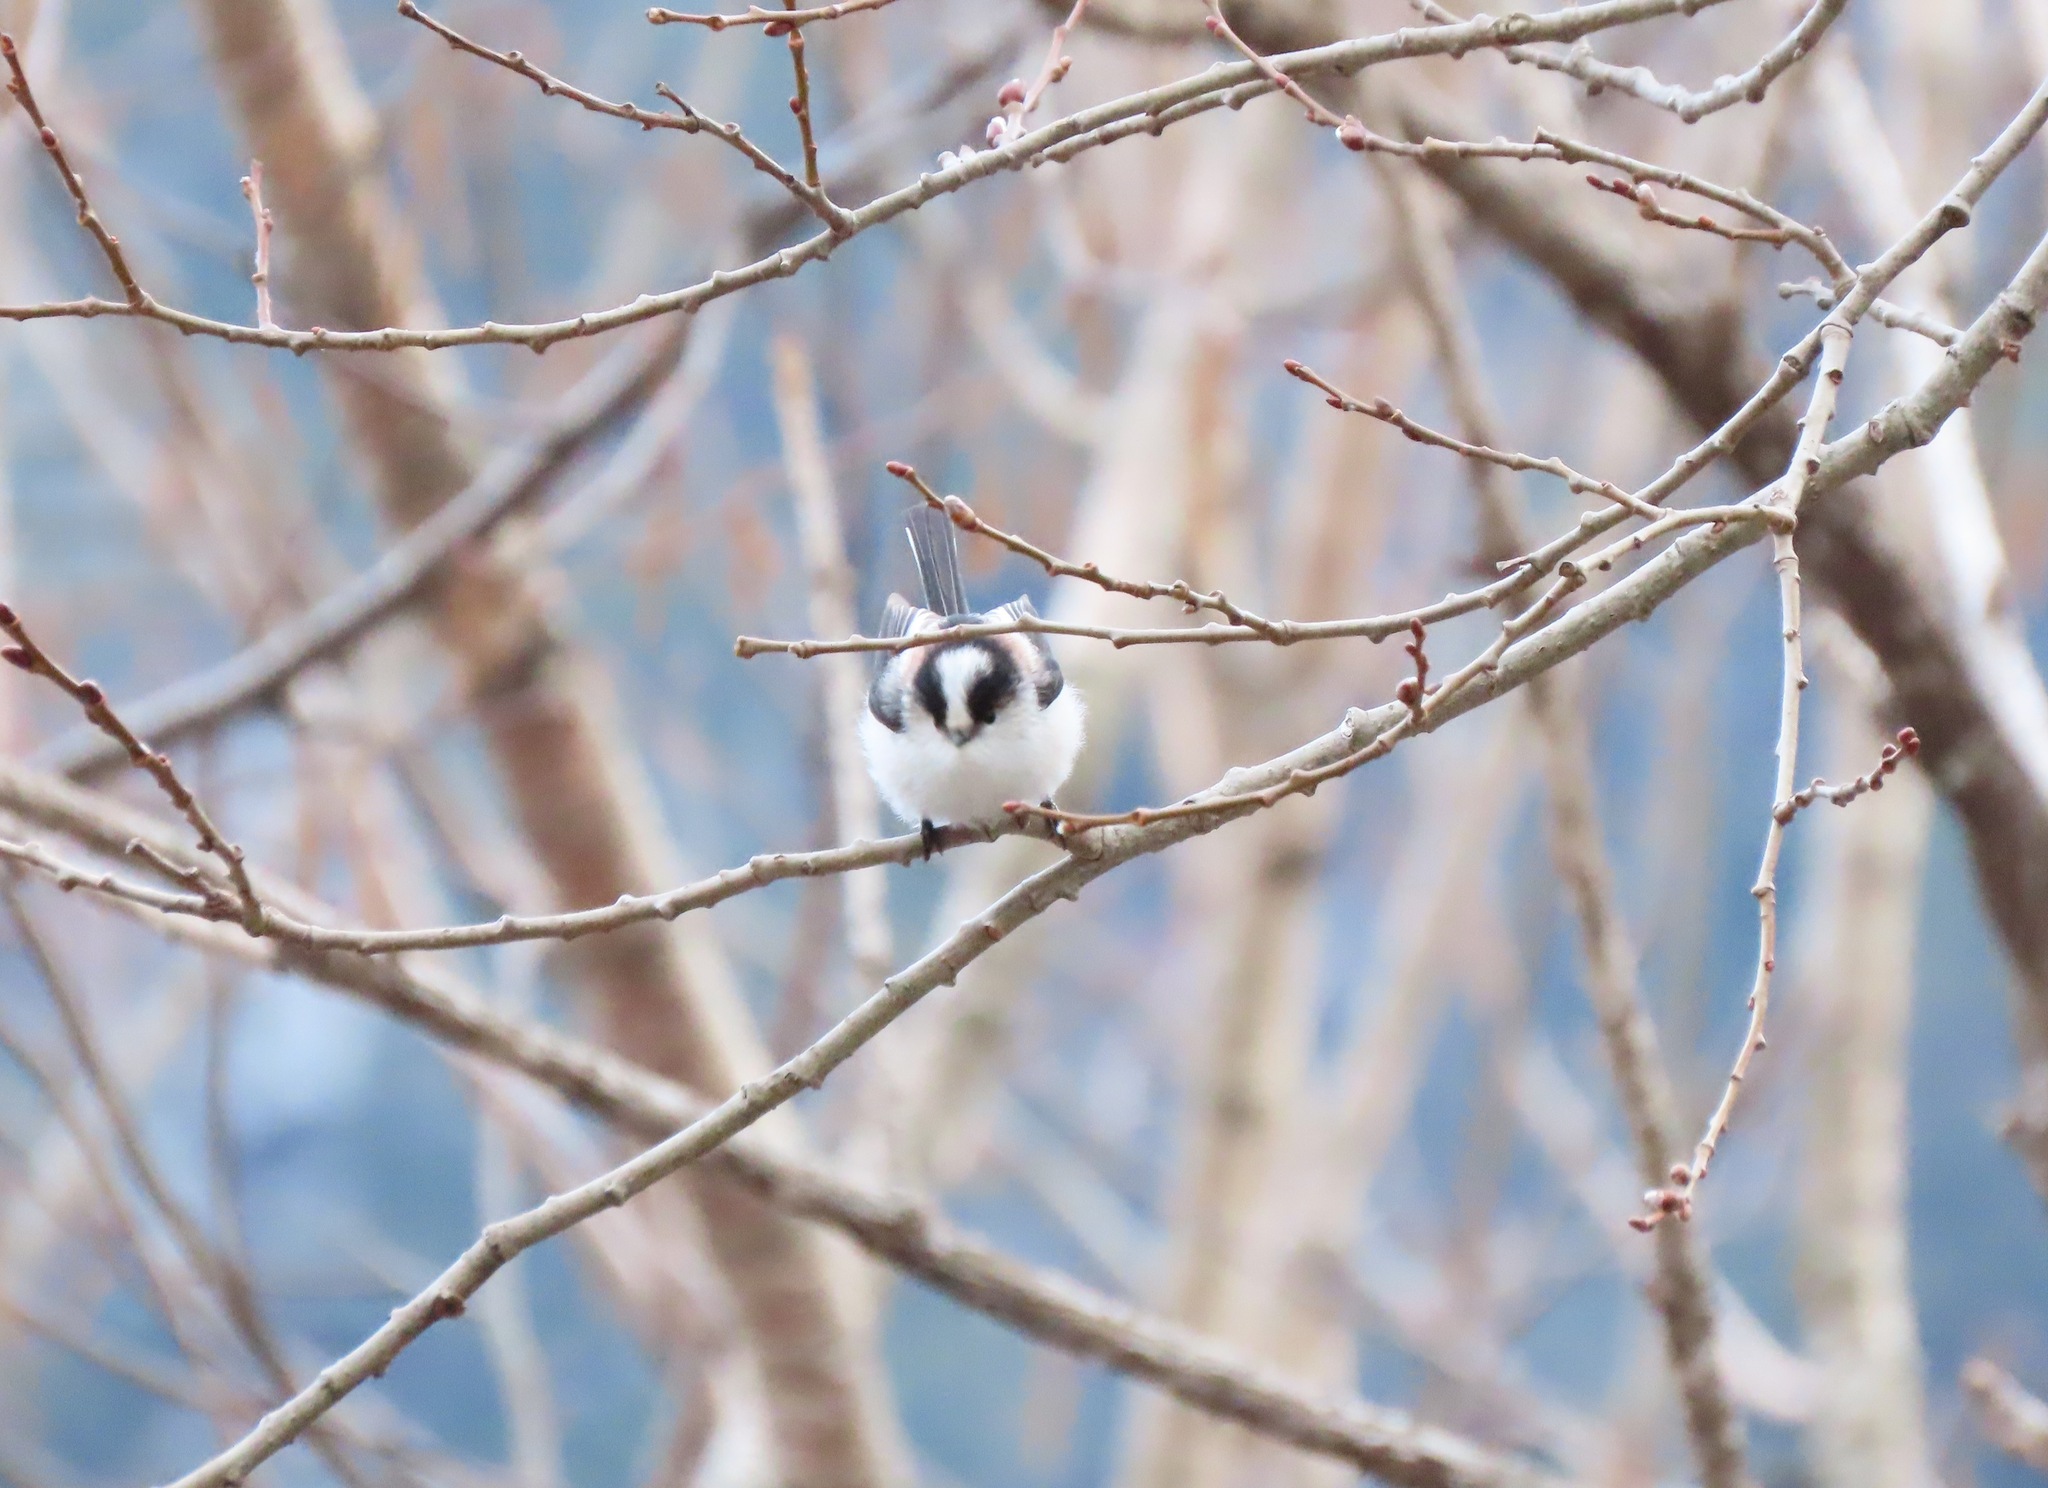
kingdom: Animalia
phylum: Chordata
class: Aves
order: Passeriformes
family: Aegithalidae
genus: Aegithalos
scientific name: Aegithalos caudatus
